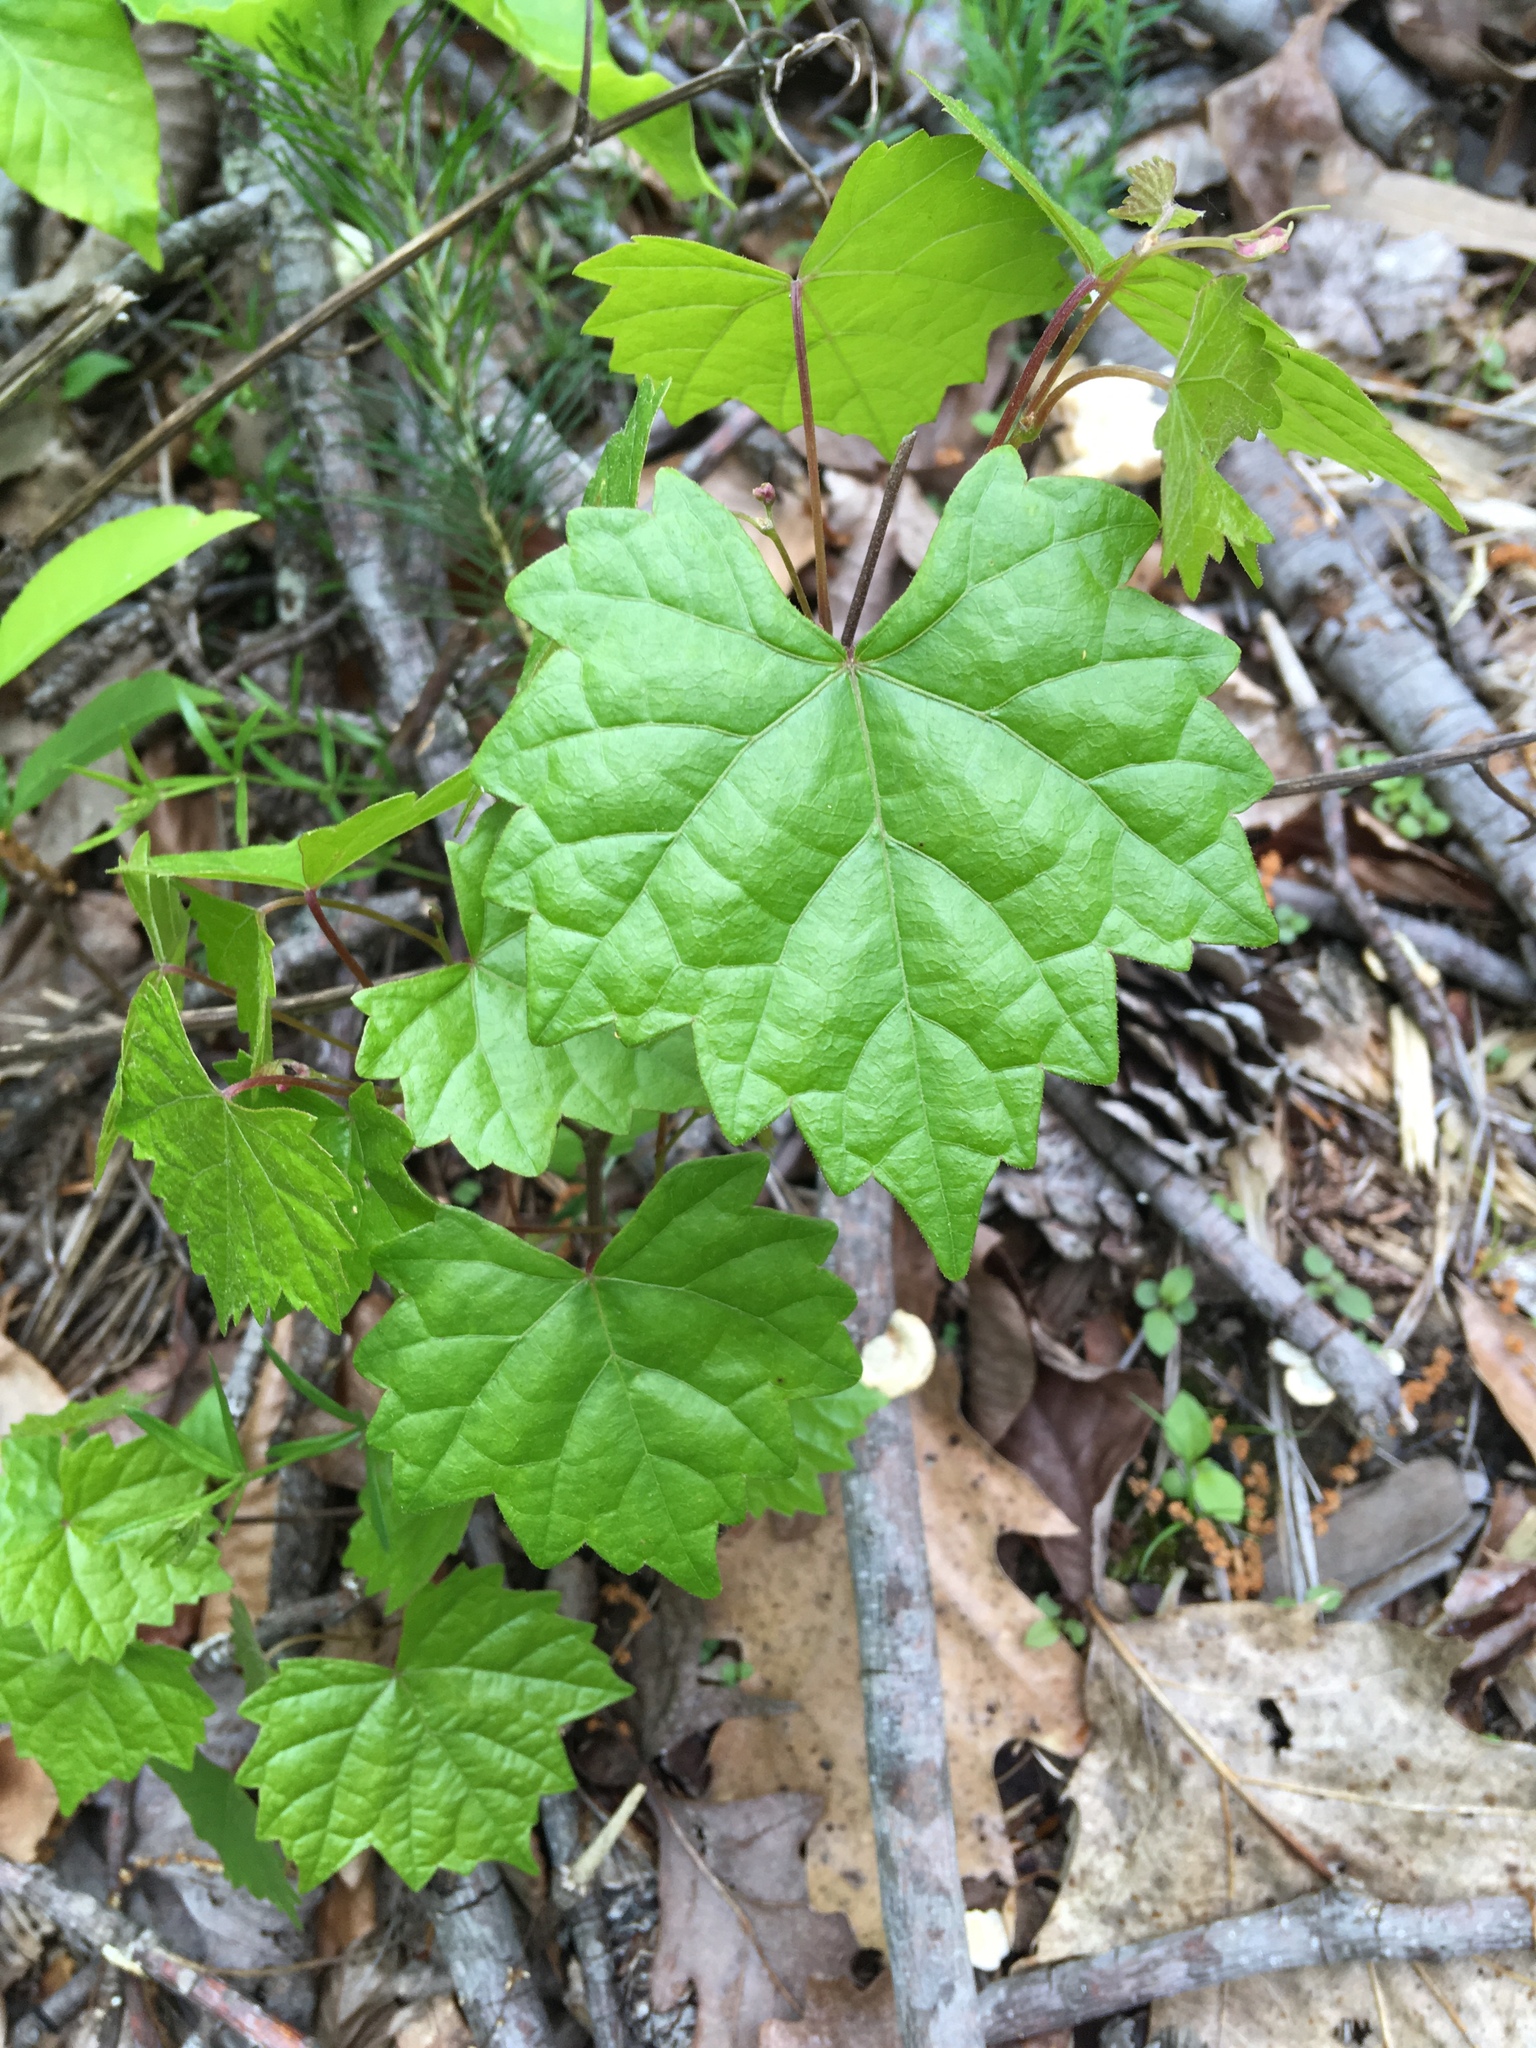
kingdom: Plantae
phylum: Tracheophyta
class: Magnoliopsida
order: Vitales
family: Vitaceae
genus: Vitis
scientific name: Vitis rotundifolia
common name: Muscadine grape
